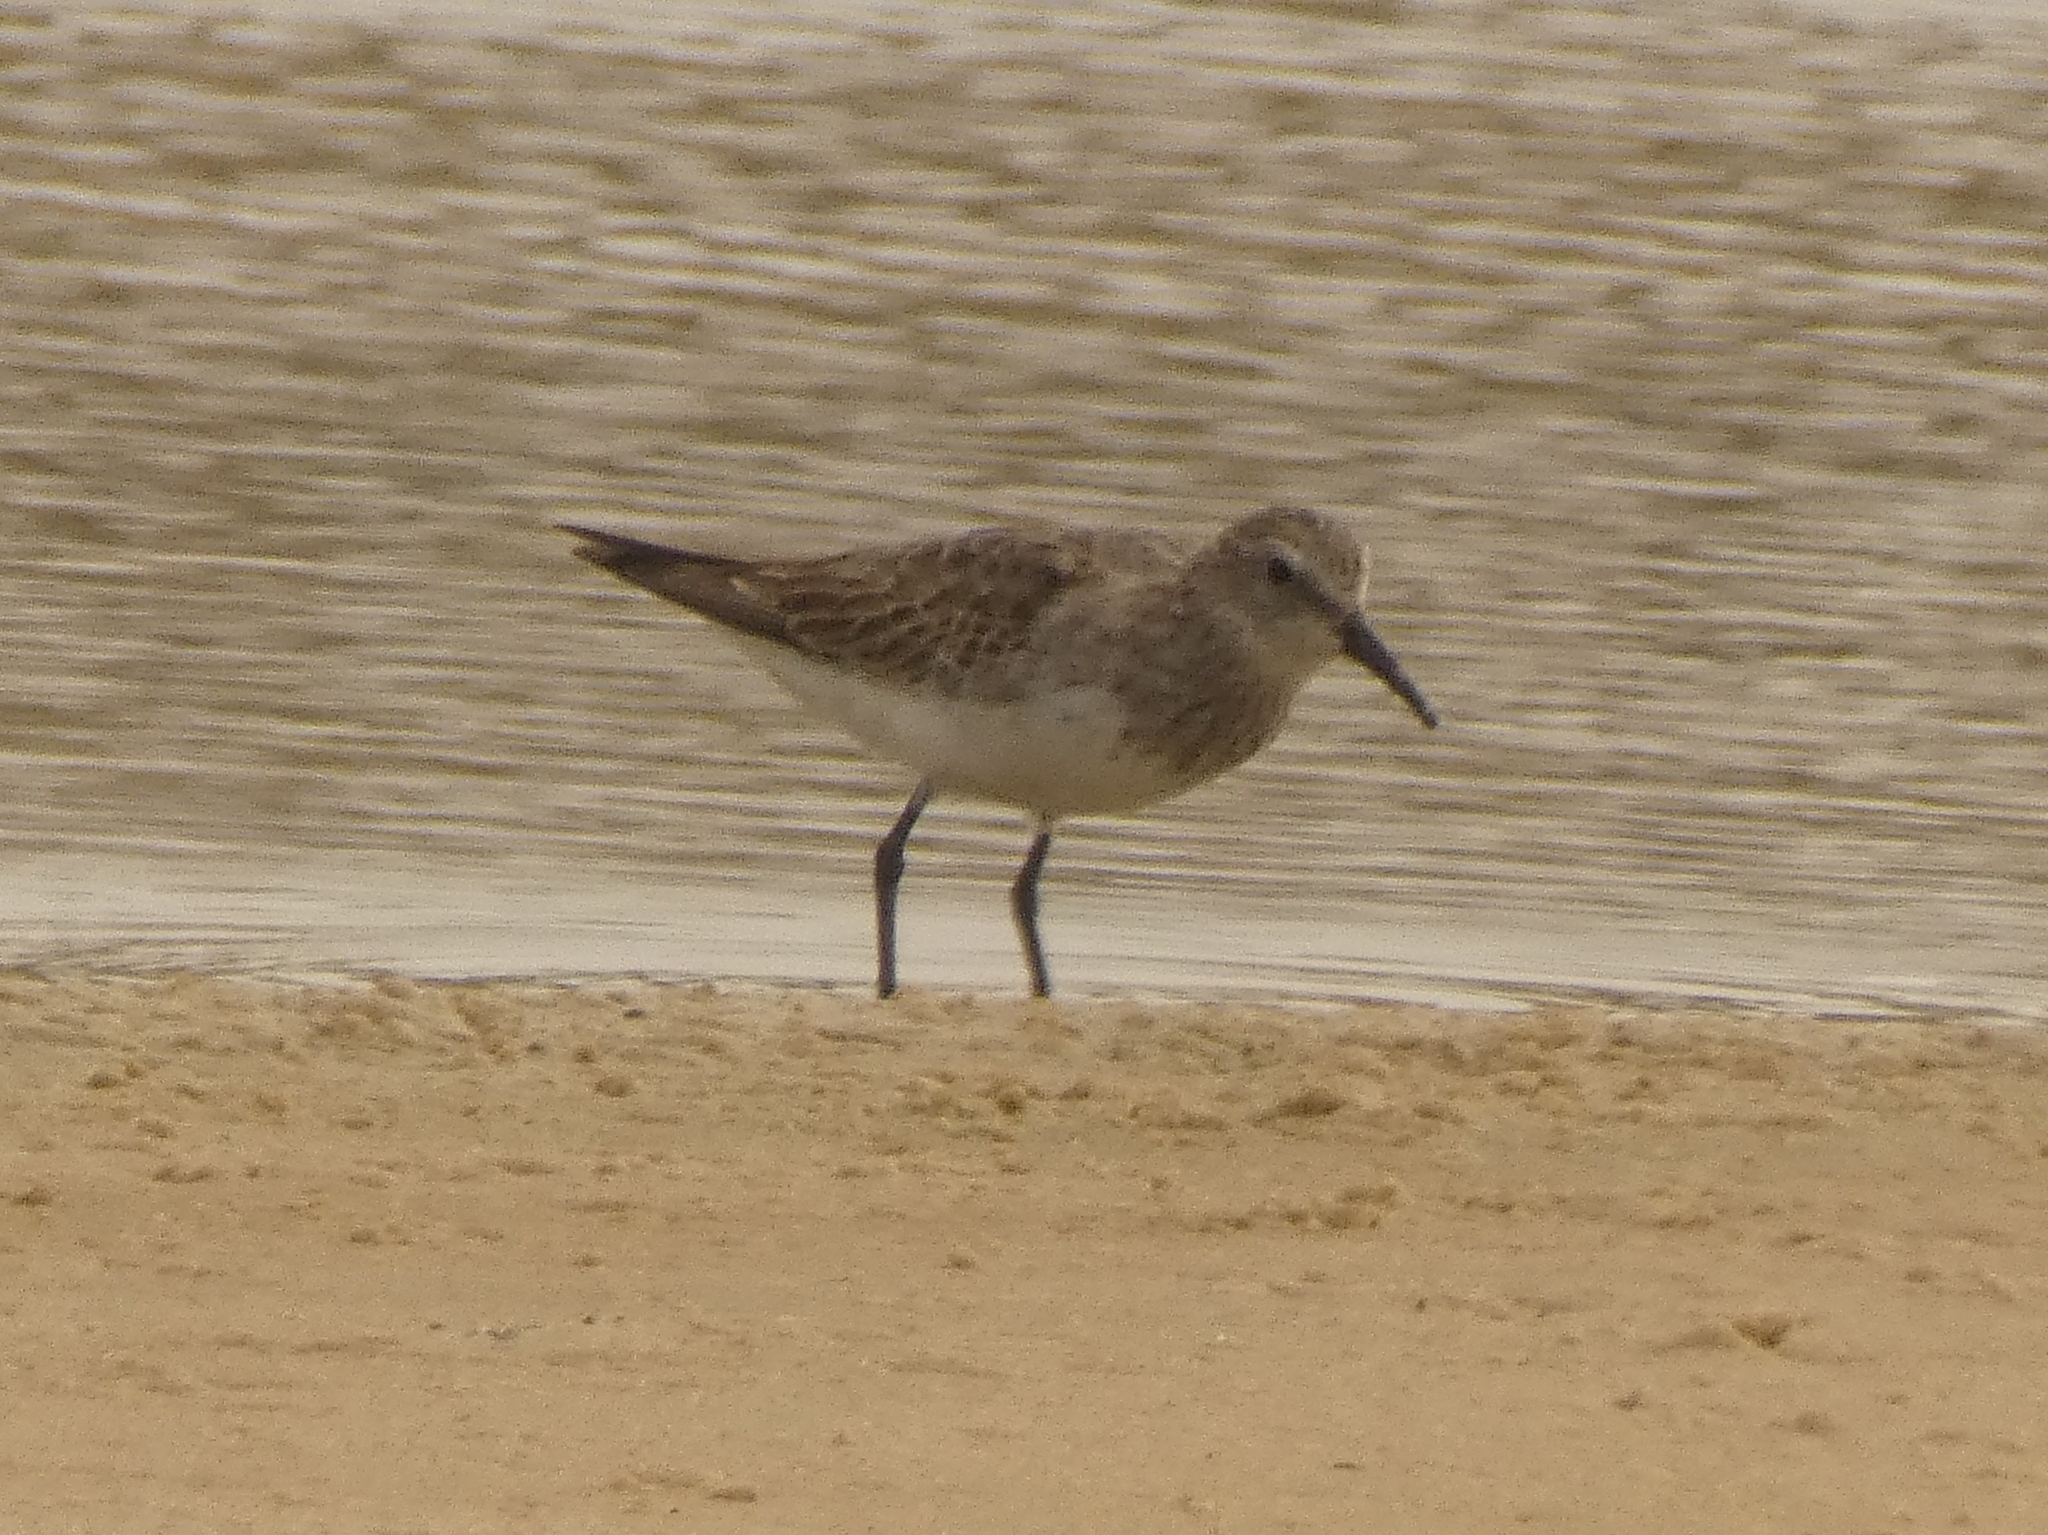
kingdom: Animalia
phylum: Chordata
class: Aves
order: Charadriiformes
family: Scolopacidae
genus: Calidris
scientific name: Calidris fuscicollis
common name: White-rumped sandpiper
